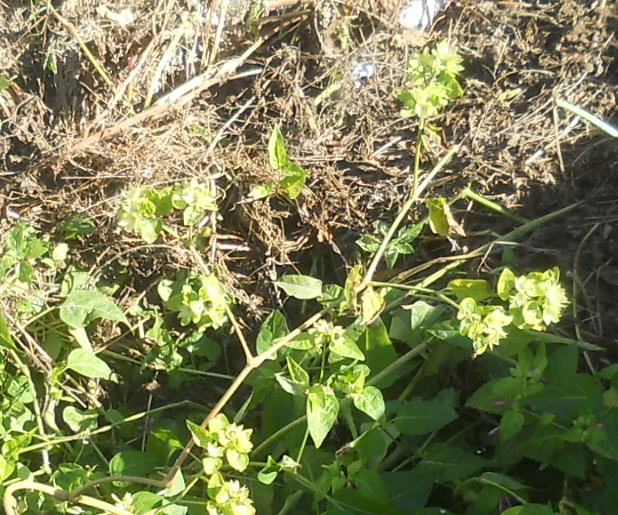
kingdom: Plantae
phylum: Tracheophyta
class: Magnoliopsida
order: Caryophyllales
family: Nyctaginaceae
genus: Mirabilis
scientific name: Mirabilis jalapa
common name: Marvel-of-peru
